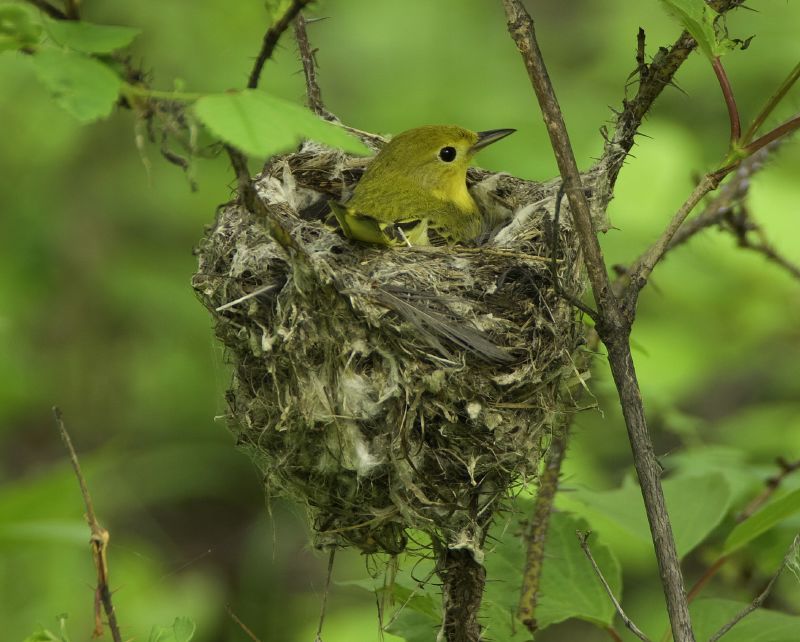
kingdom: Animalia
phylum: Chordata
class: Aves
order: Passeriformes
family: Parulidae
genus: Setophaga
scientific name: Setophaga petechia
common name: Yellow warbler
